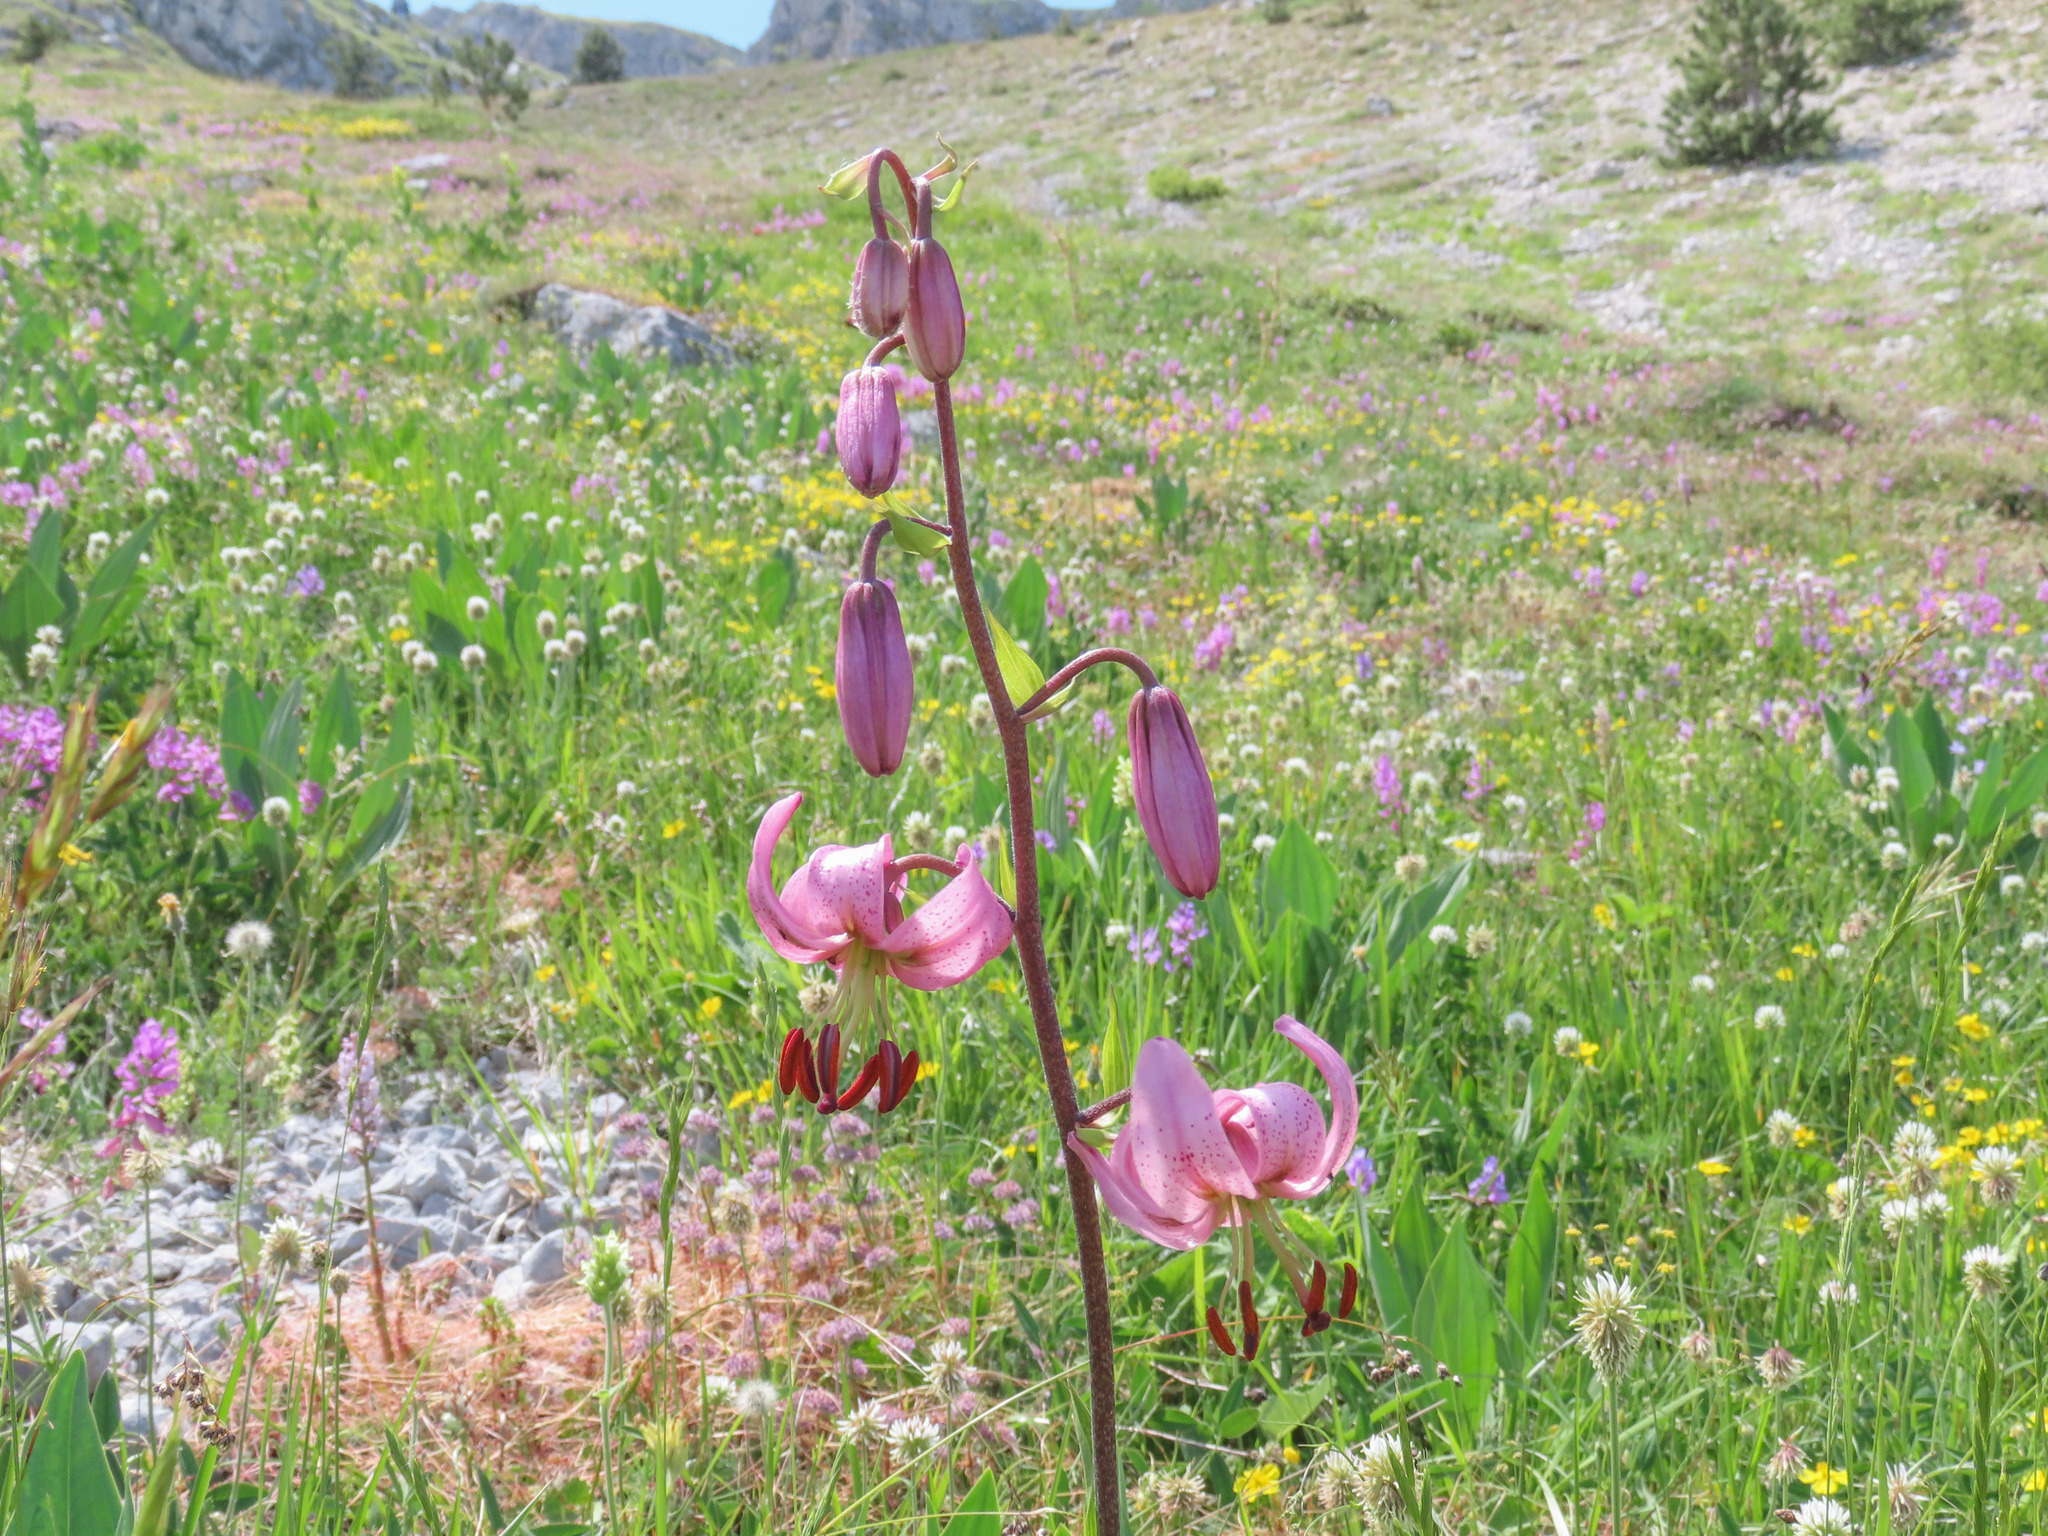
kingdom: Plantae
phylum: Tracheophyta
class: Liliopsida
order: Liliales
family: Liliaceae
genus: Lilium
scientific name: Lilium martagon
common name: Martagon lily
